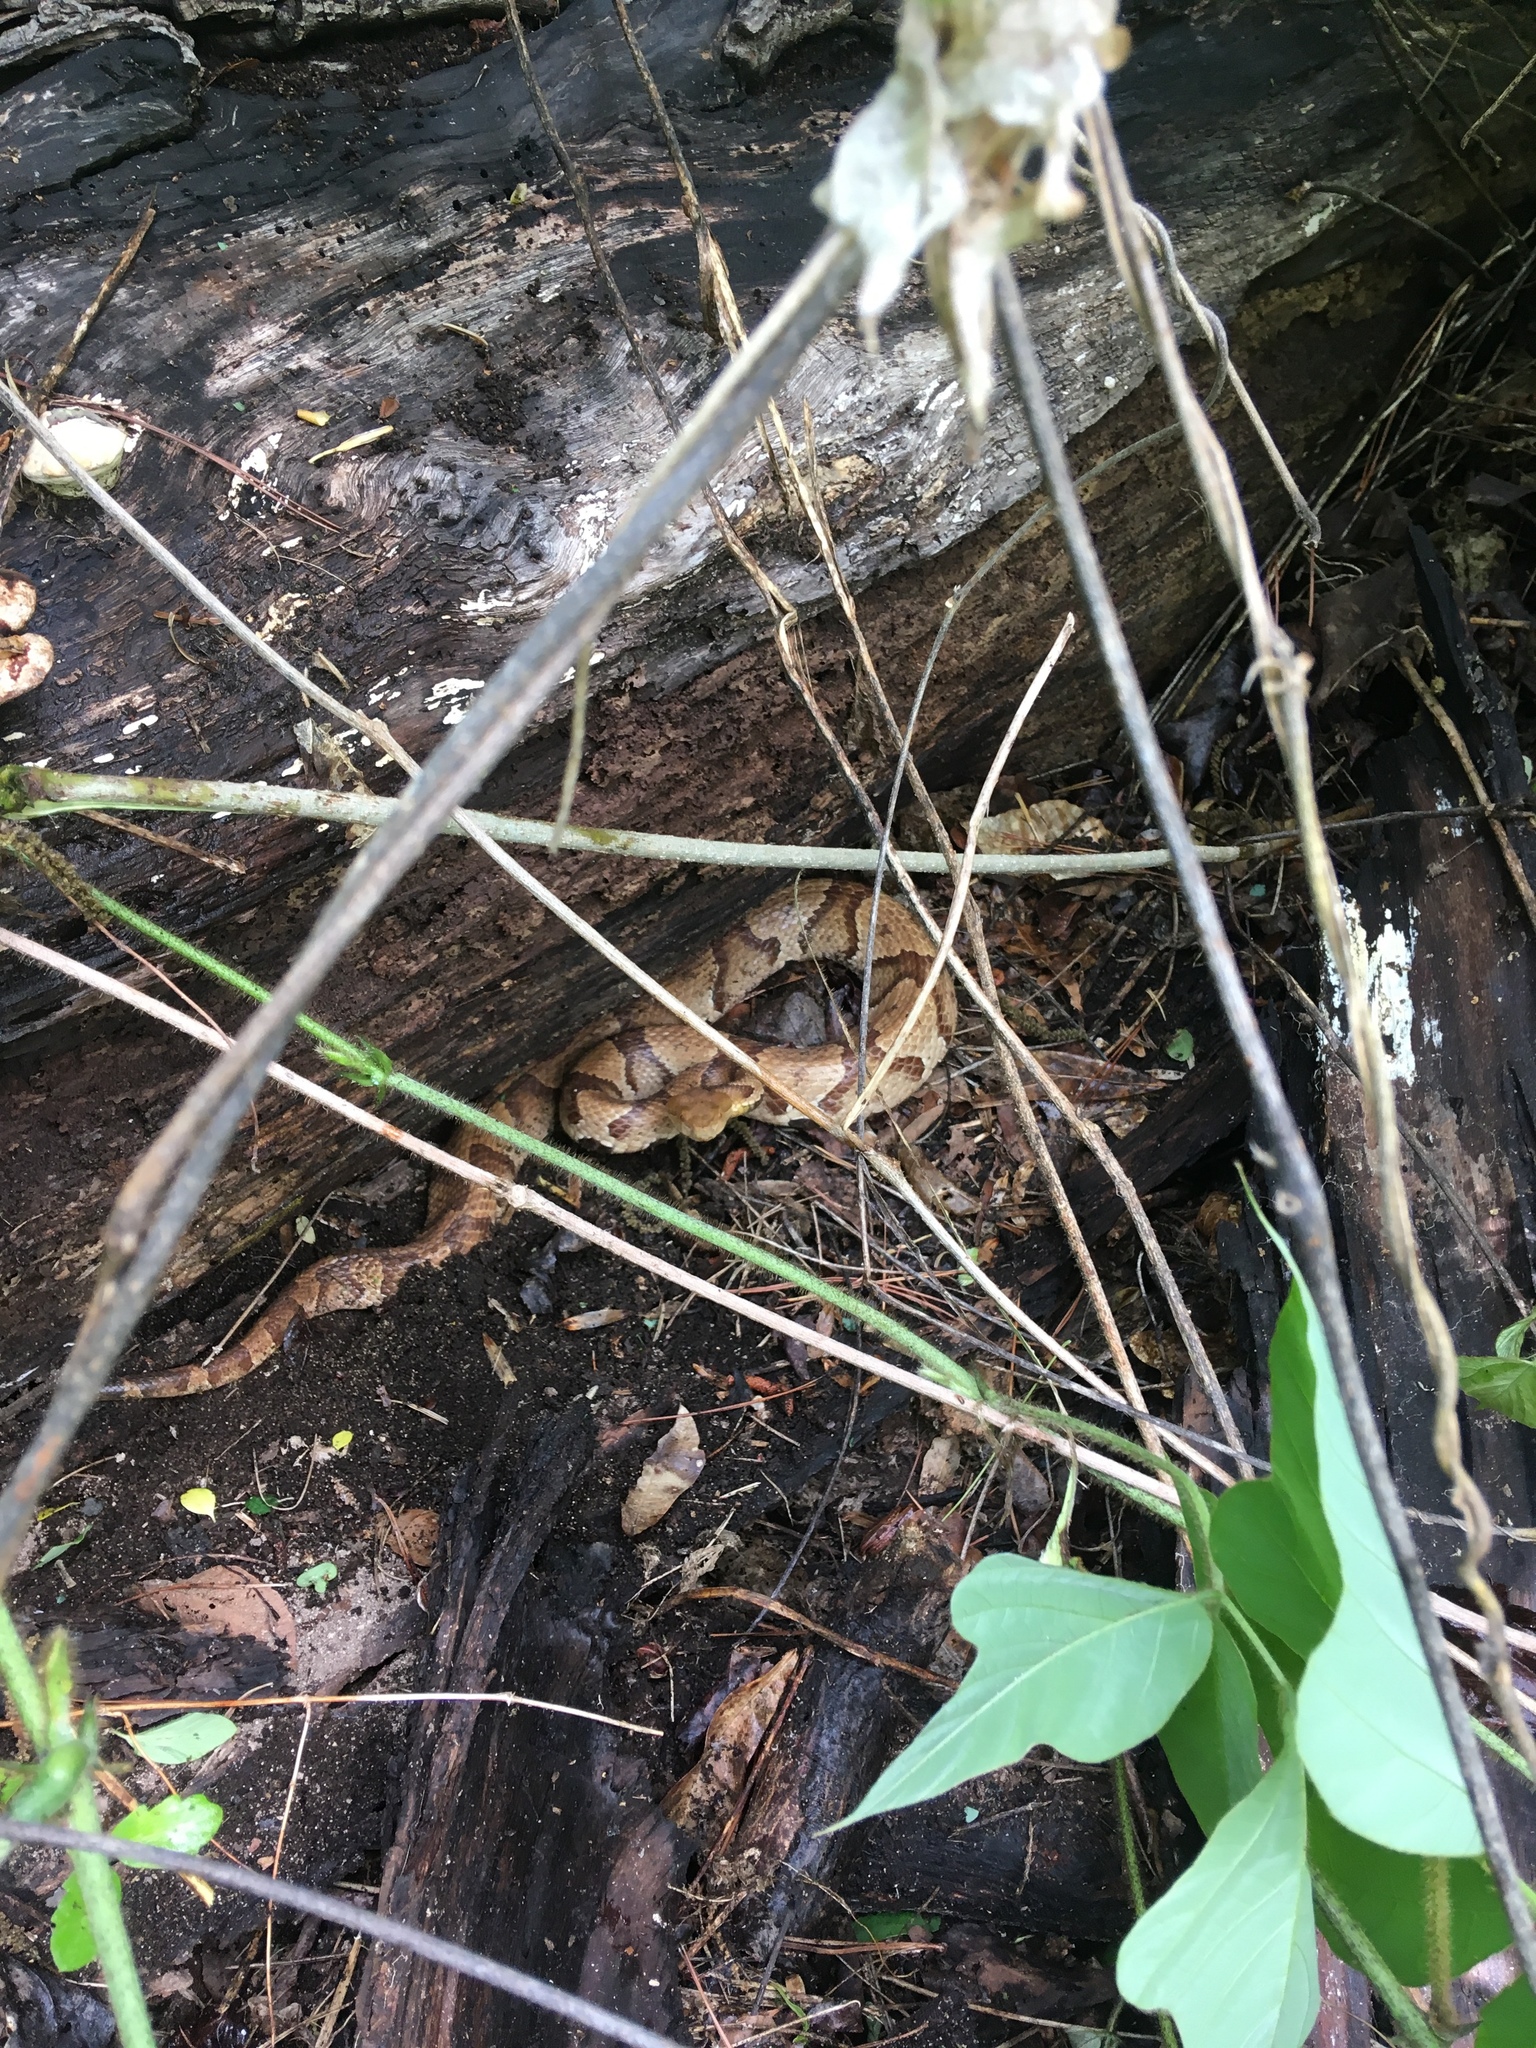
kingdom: Animalia
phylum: Chordata
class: Squamata
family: Viperidae
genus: Agkistrodon
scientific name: Agkistrodon contortrix
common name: Northern copperhead
